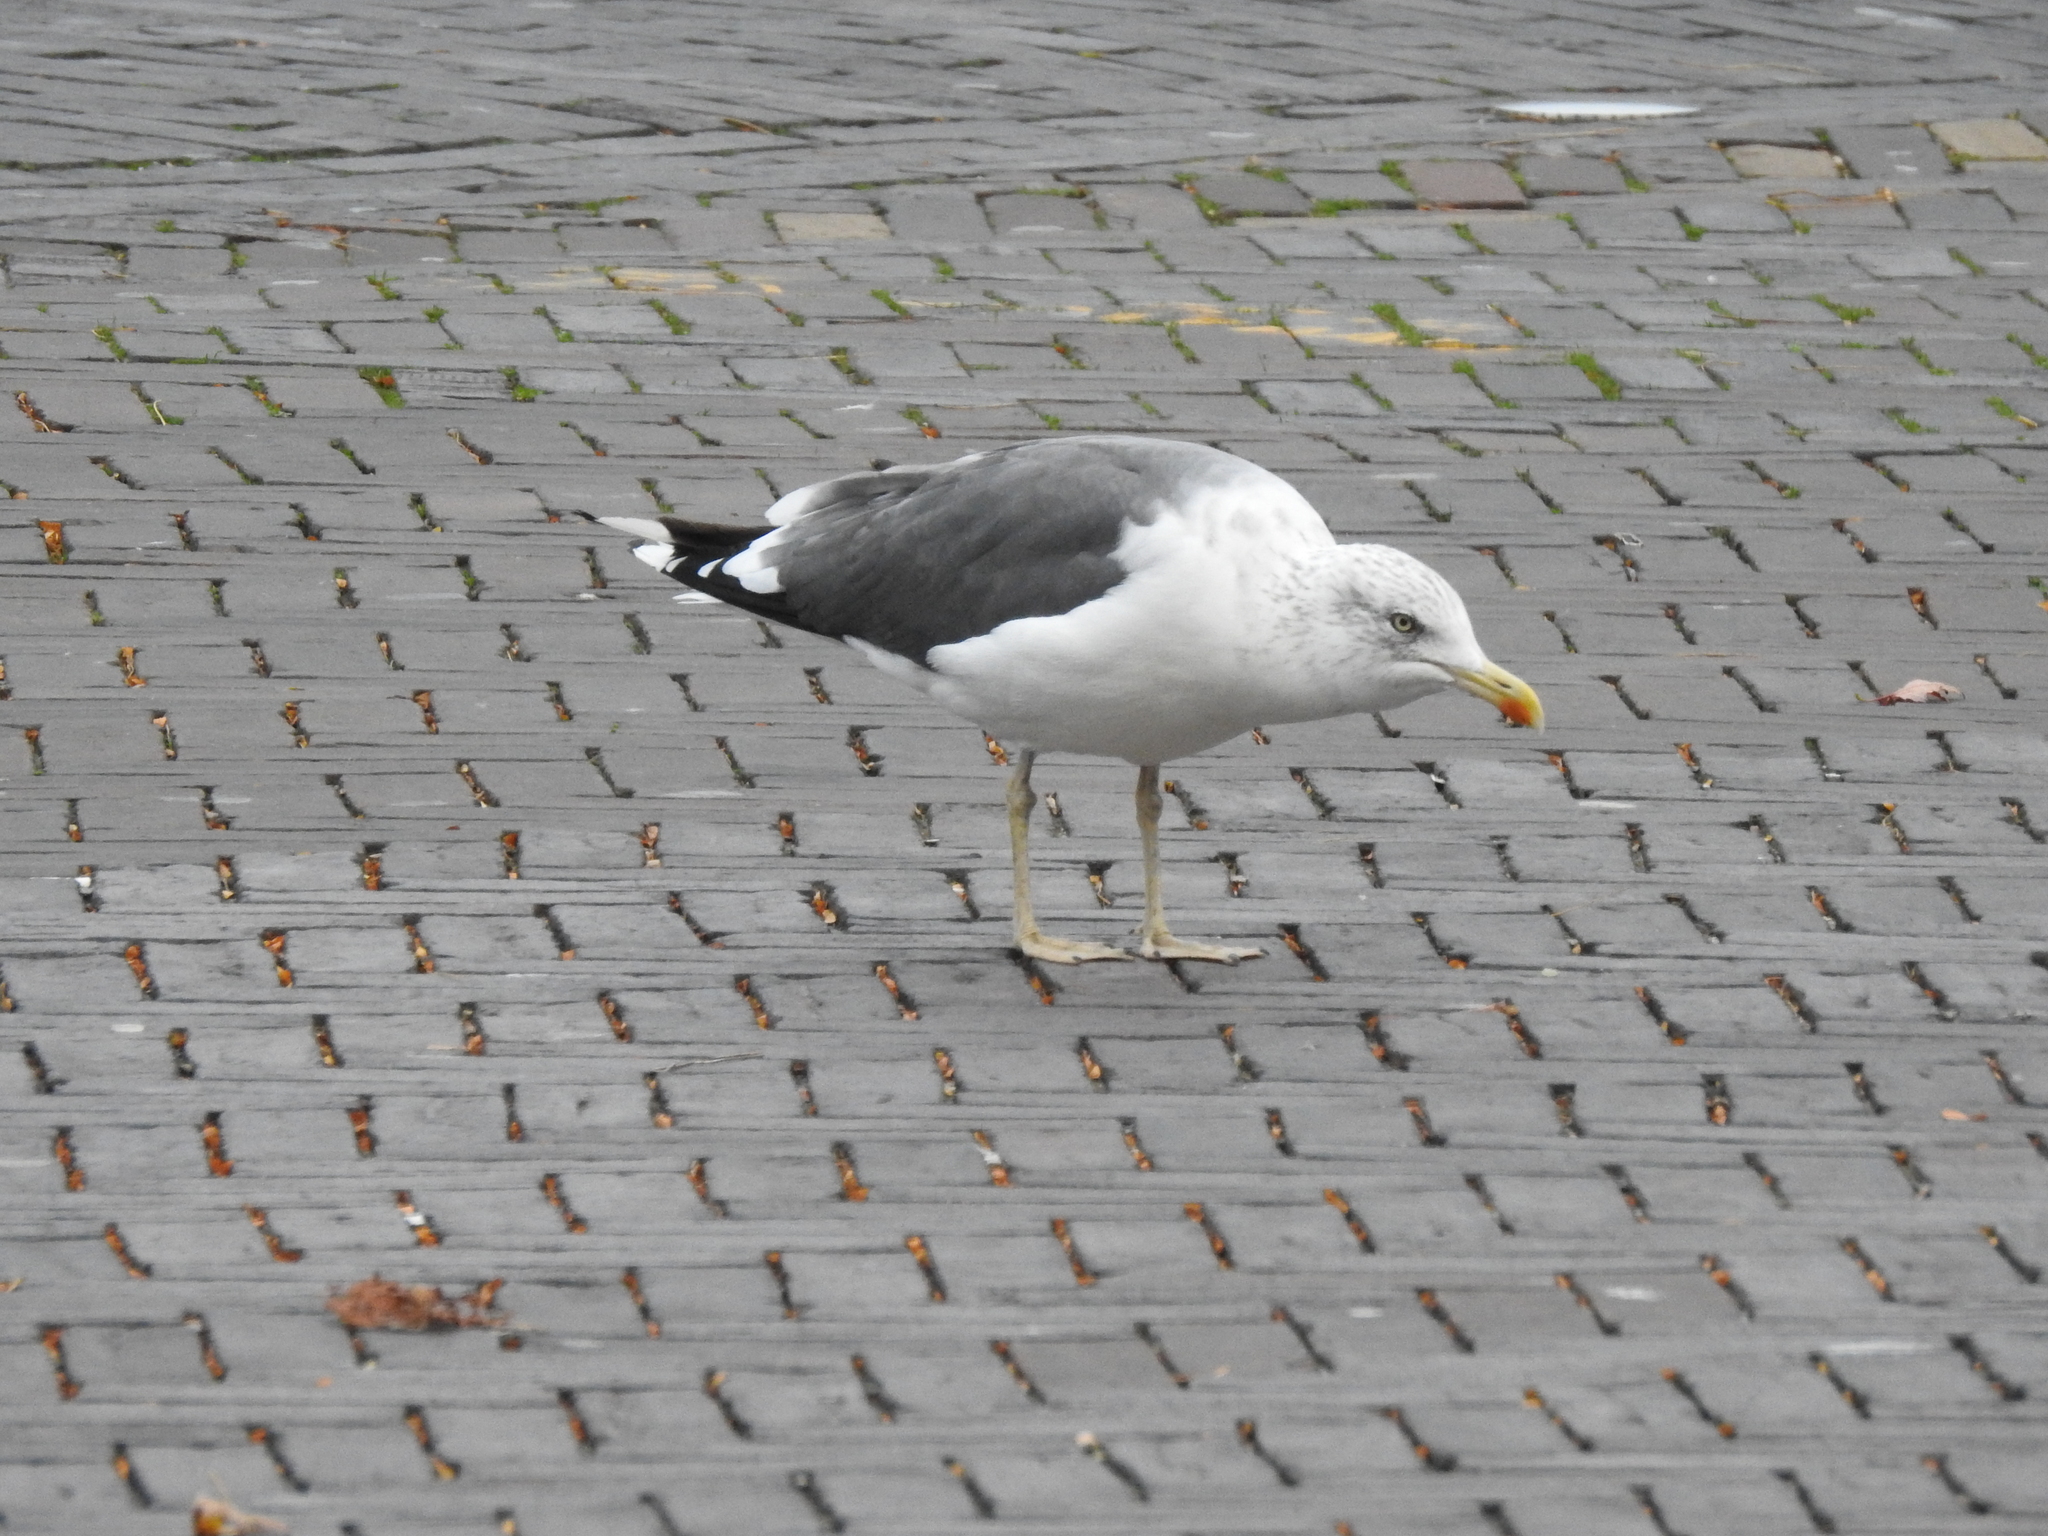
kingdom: Animalia
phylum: Chordata
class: Aves
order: Charadriiformes
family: Laridae
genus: Larus
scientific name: Larus fuscus
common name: Lesser black-backed gull
